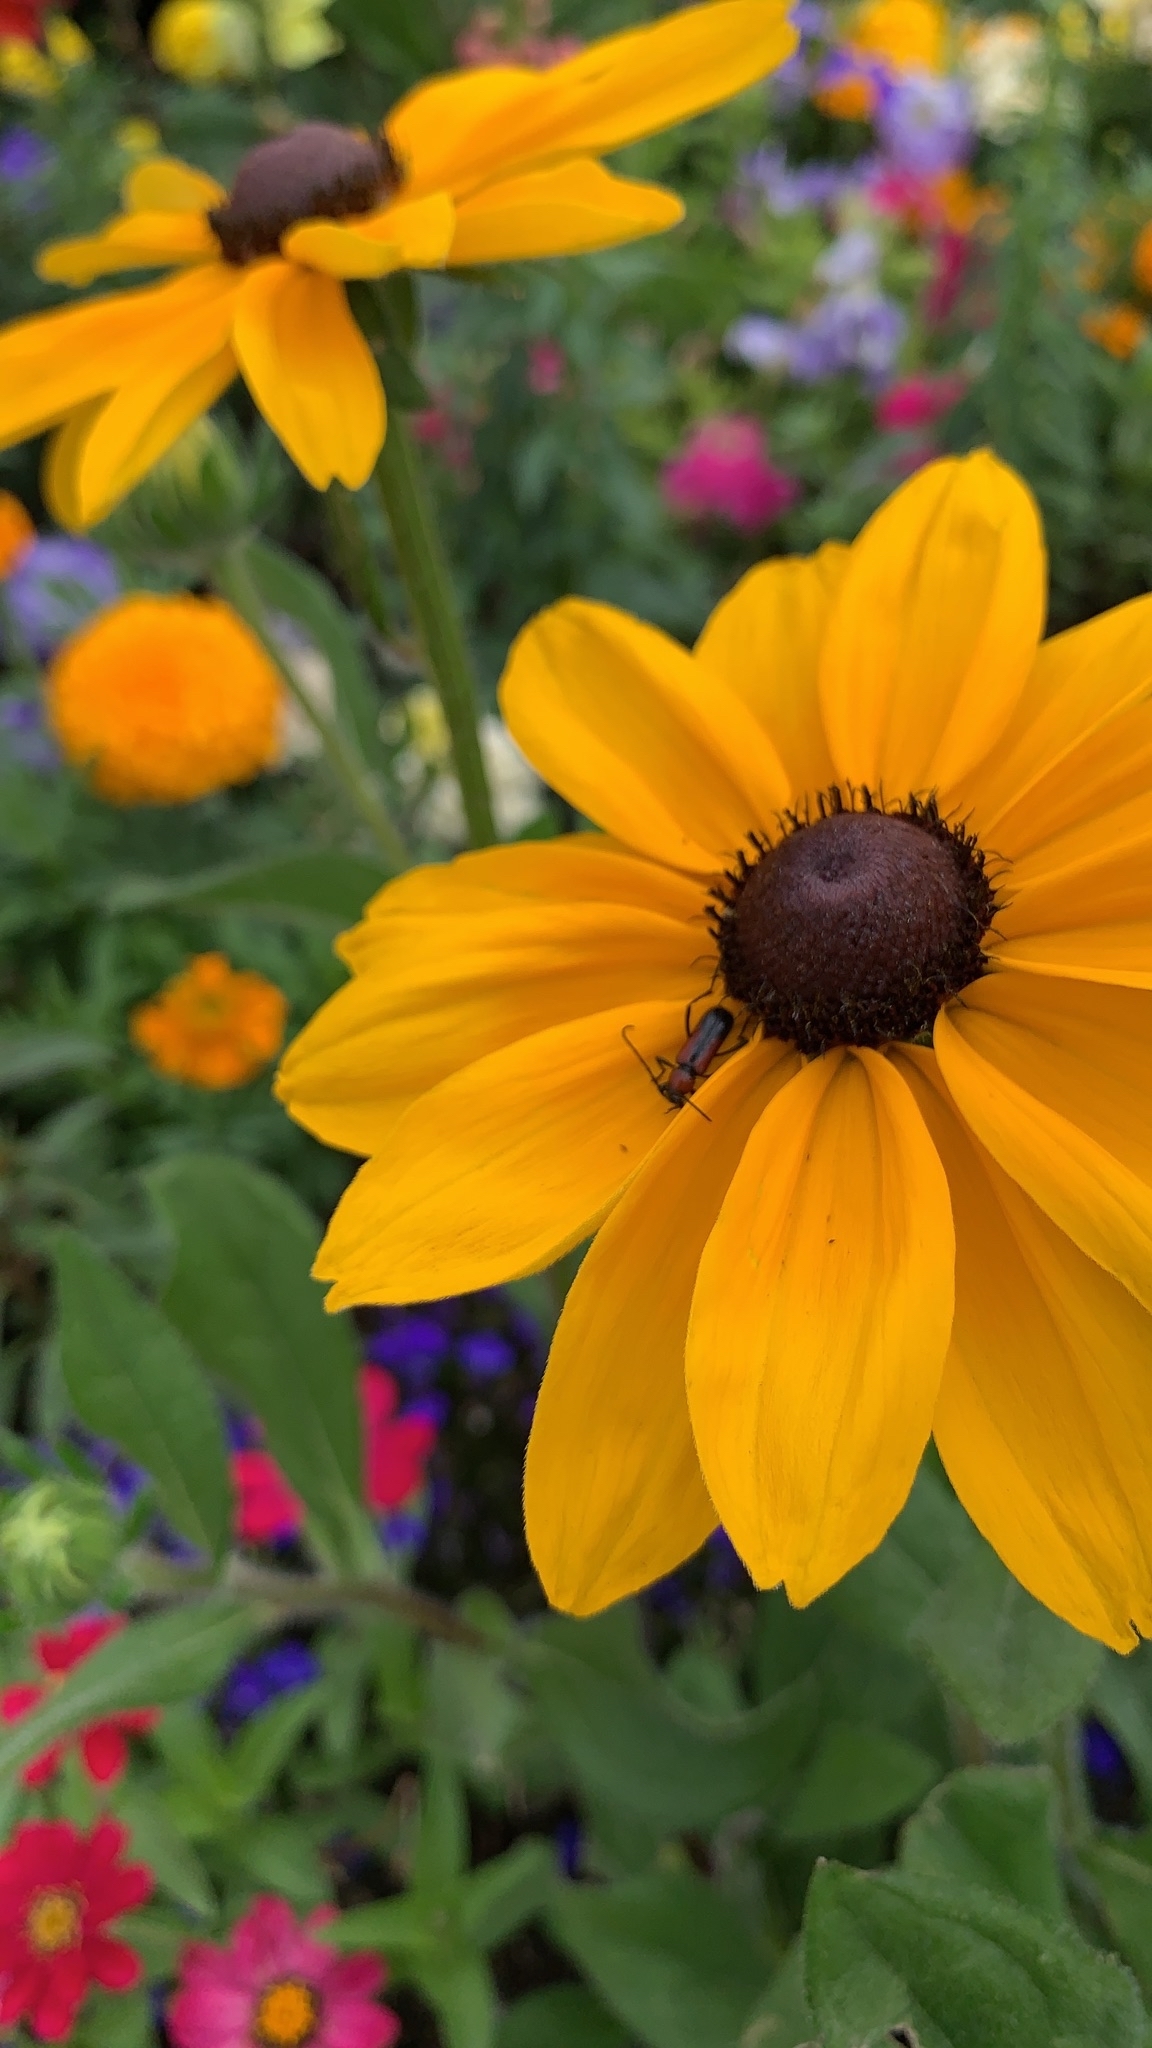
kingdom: Animalia
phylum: Arthropoda
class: Insecta
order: Coleoptera
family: Cerambycidae
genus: Batyle
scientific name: Batyle suturalis
